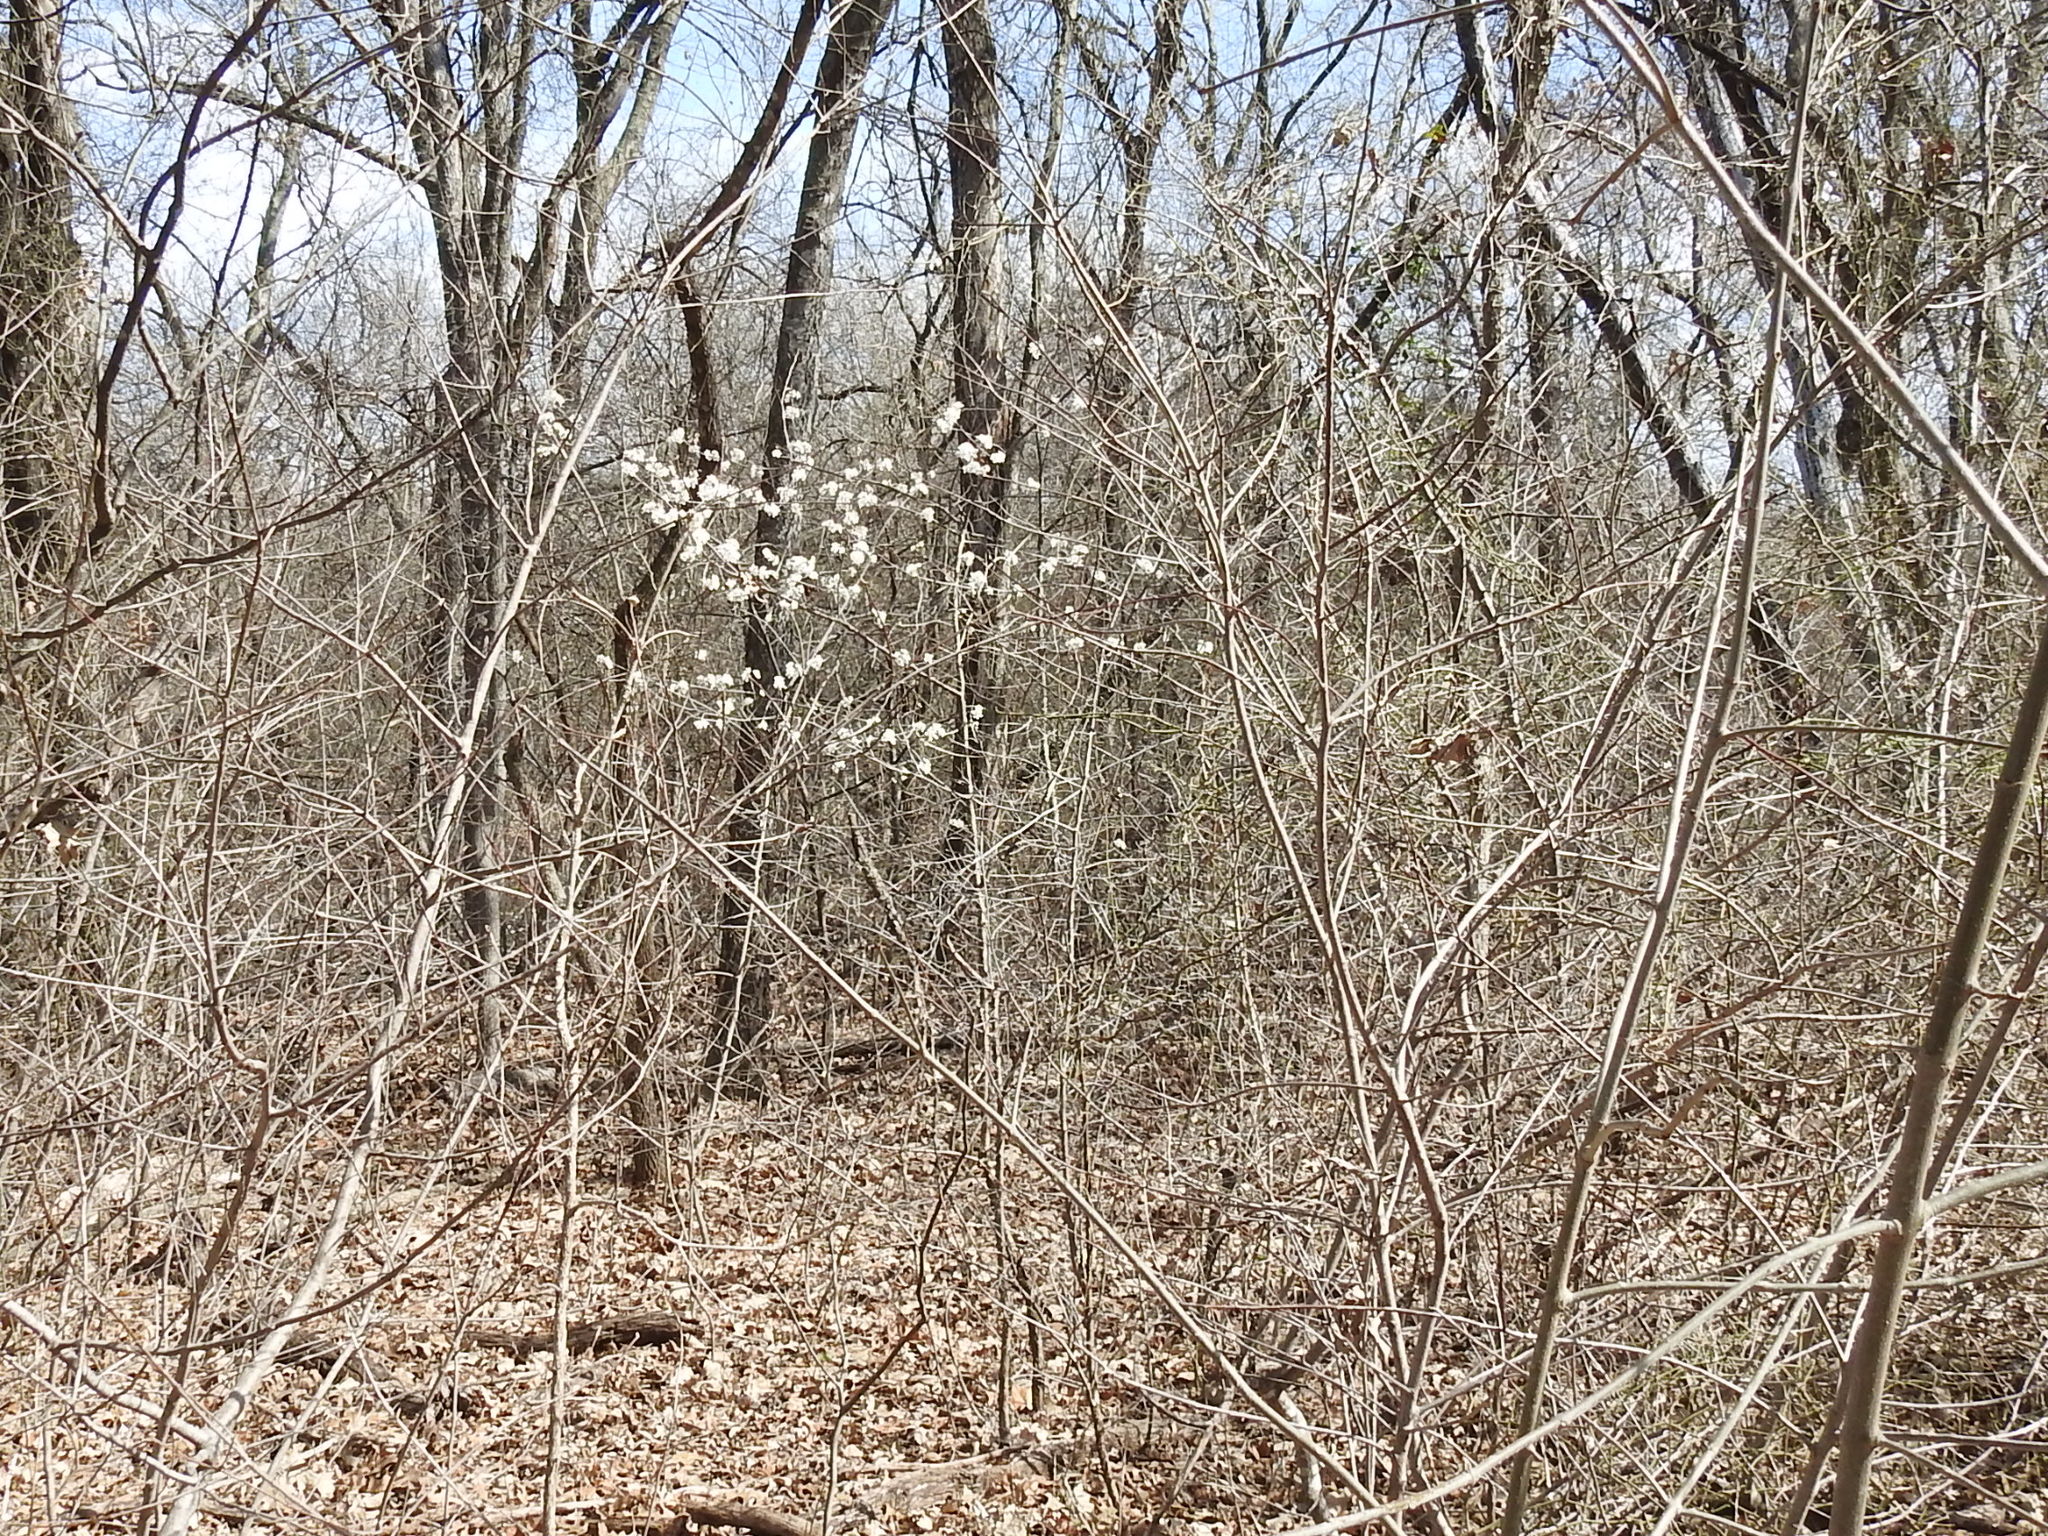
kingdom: Plantae
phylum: Tracheophyta
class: Magnoliopsida
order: Rosales
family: Rosaceae
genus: Prunus
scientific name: Prunus mexicana
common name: Mexican plum
